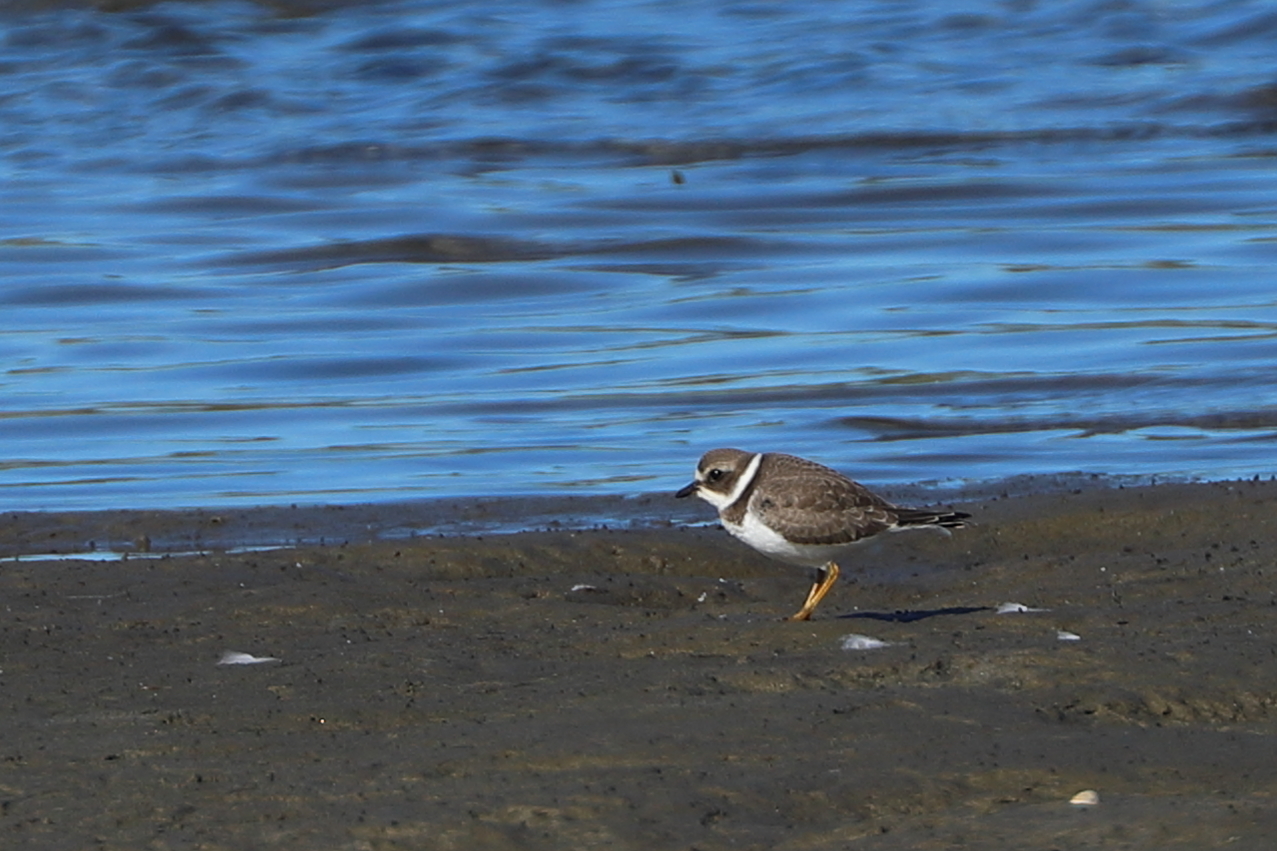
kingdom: Animalia
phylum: Chordata
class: Aves
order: Charadriiformes
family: Charadriidae
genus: Charadrius
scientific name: Charadrius semipalmatus
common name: Semipalmated plover
